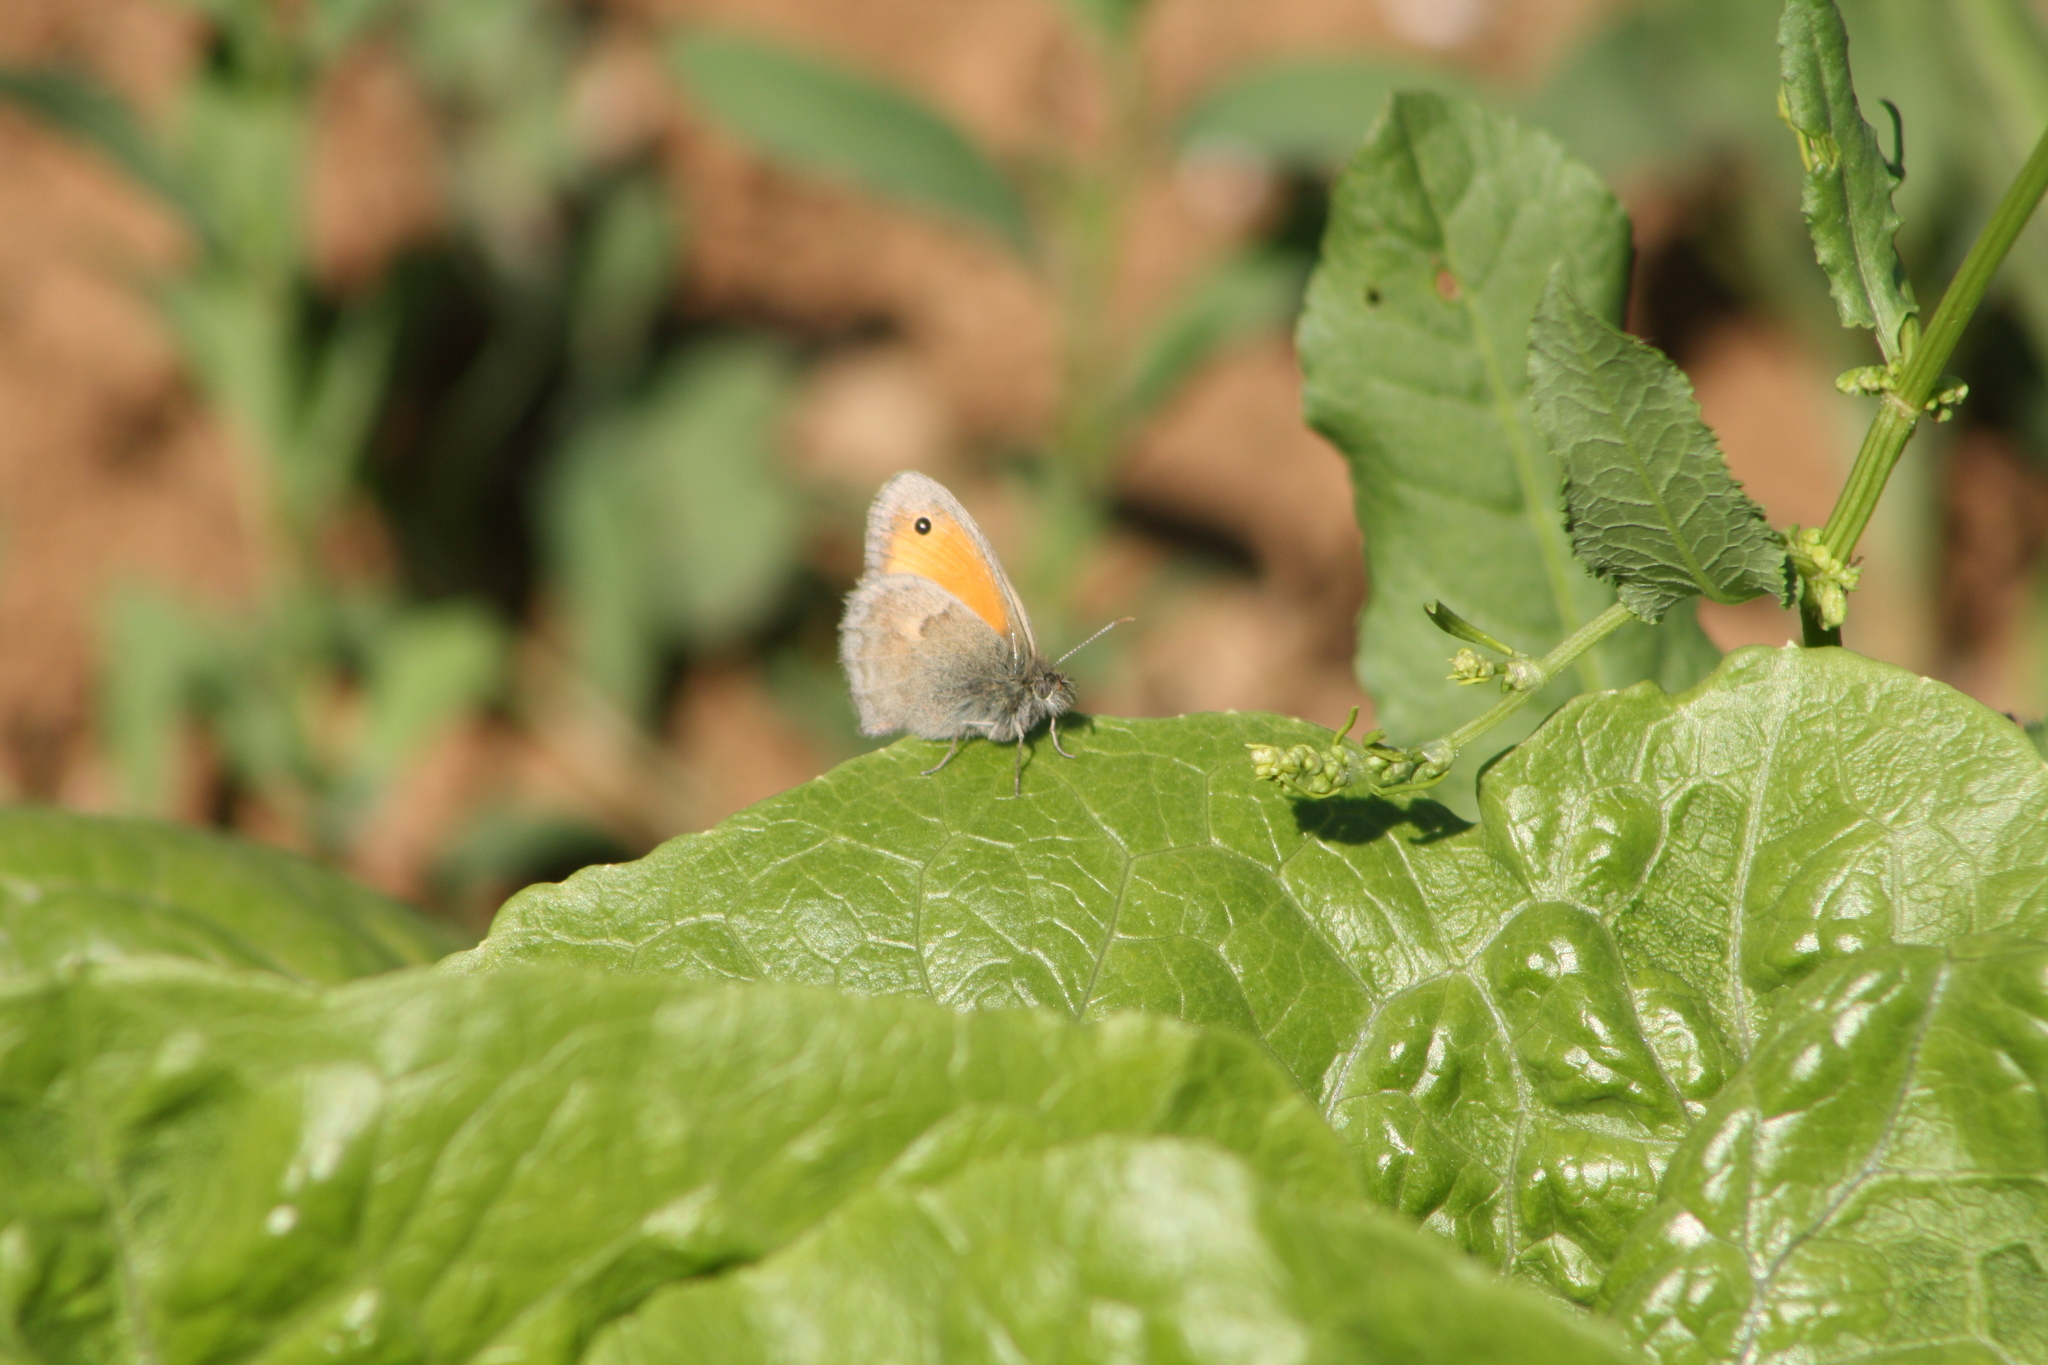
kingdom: Animalia
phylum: Arthropoda
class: Insecta
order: Lepidoptera
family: Nymphalidae
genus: Coenonympha
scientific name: Coenonympha pamphilus
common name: Small heath
